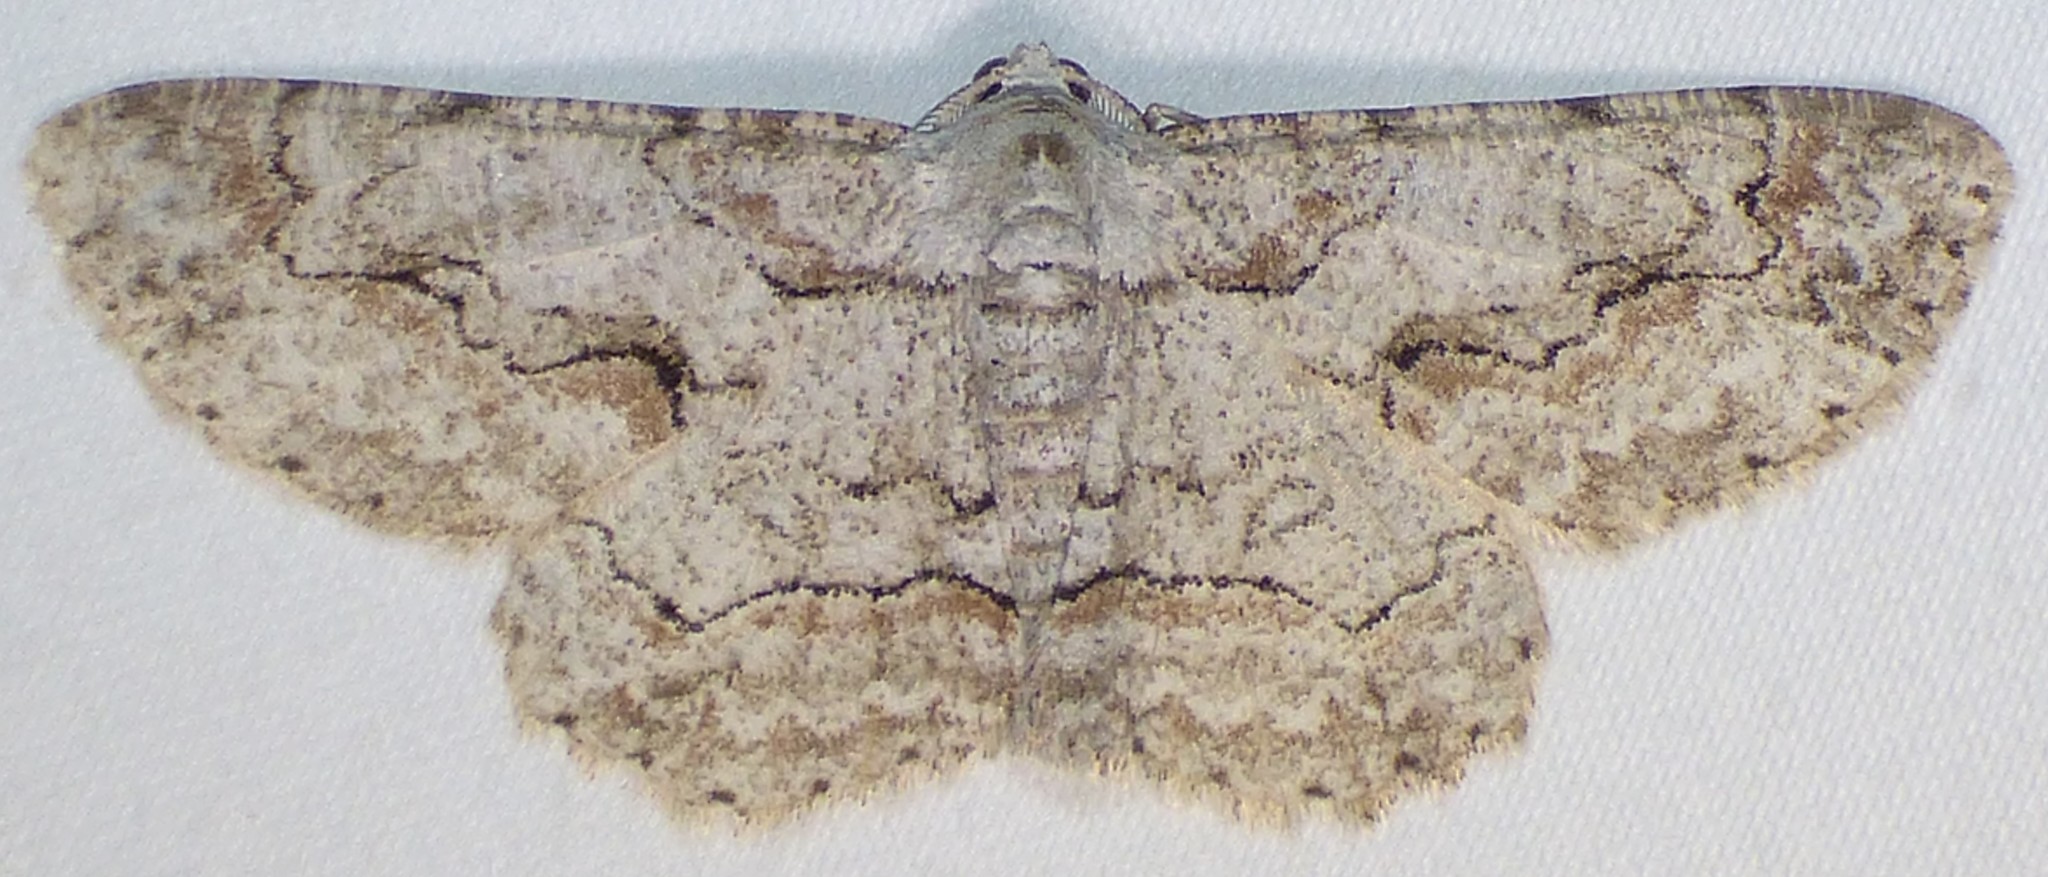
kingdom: Animalia
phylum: Arthropoda
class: Insecta
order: Lepidoptera
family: Geometridae
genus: Iridopsis
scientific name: Iridopsis defectaria
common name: Brown-shaded gray
